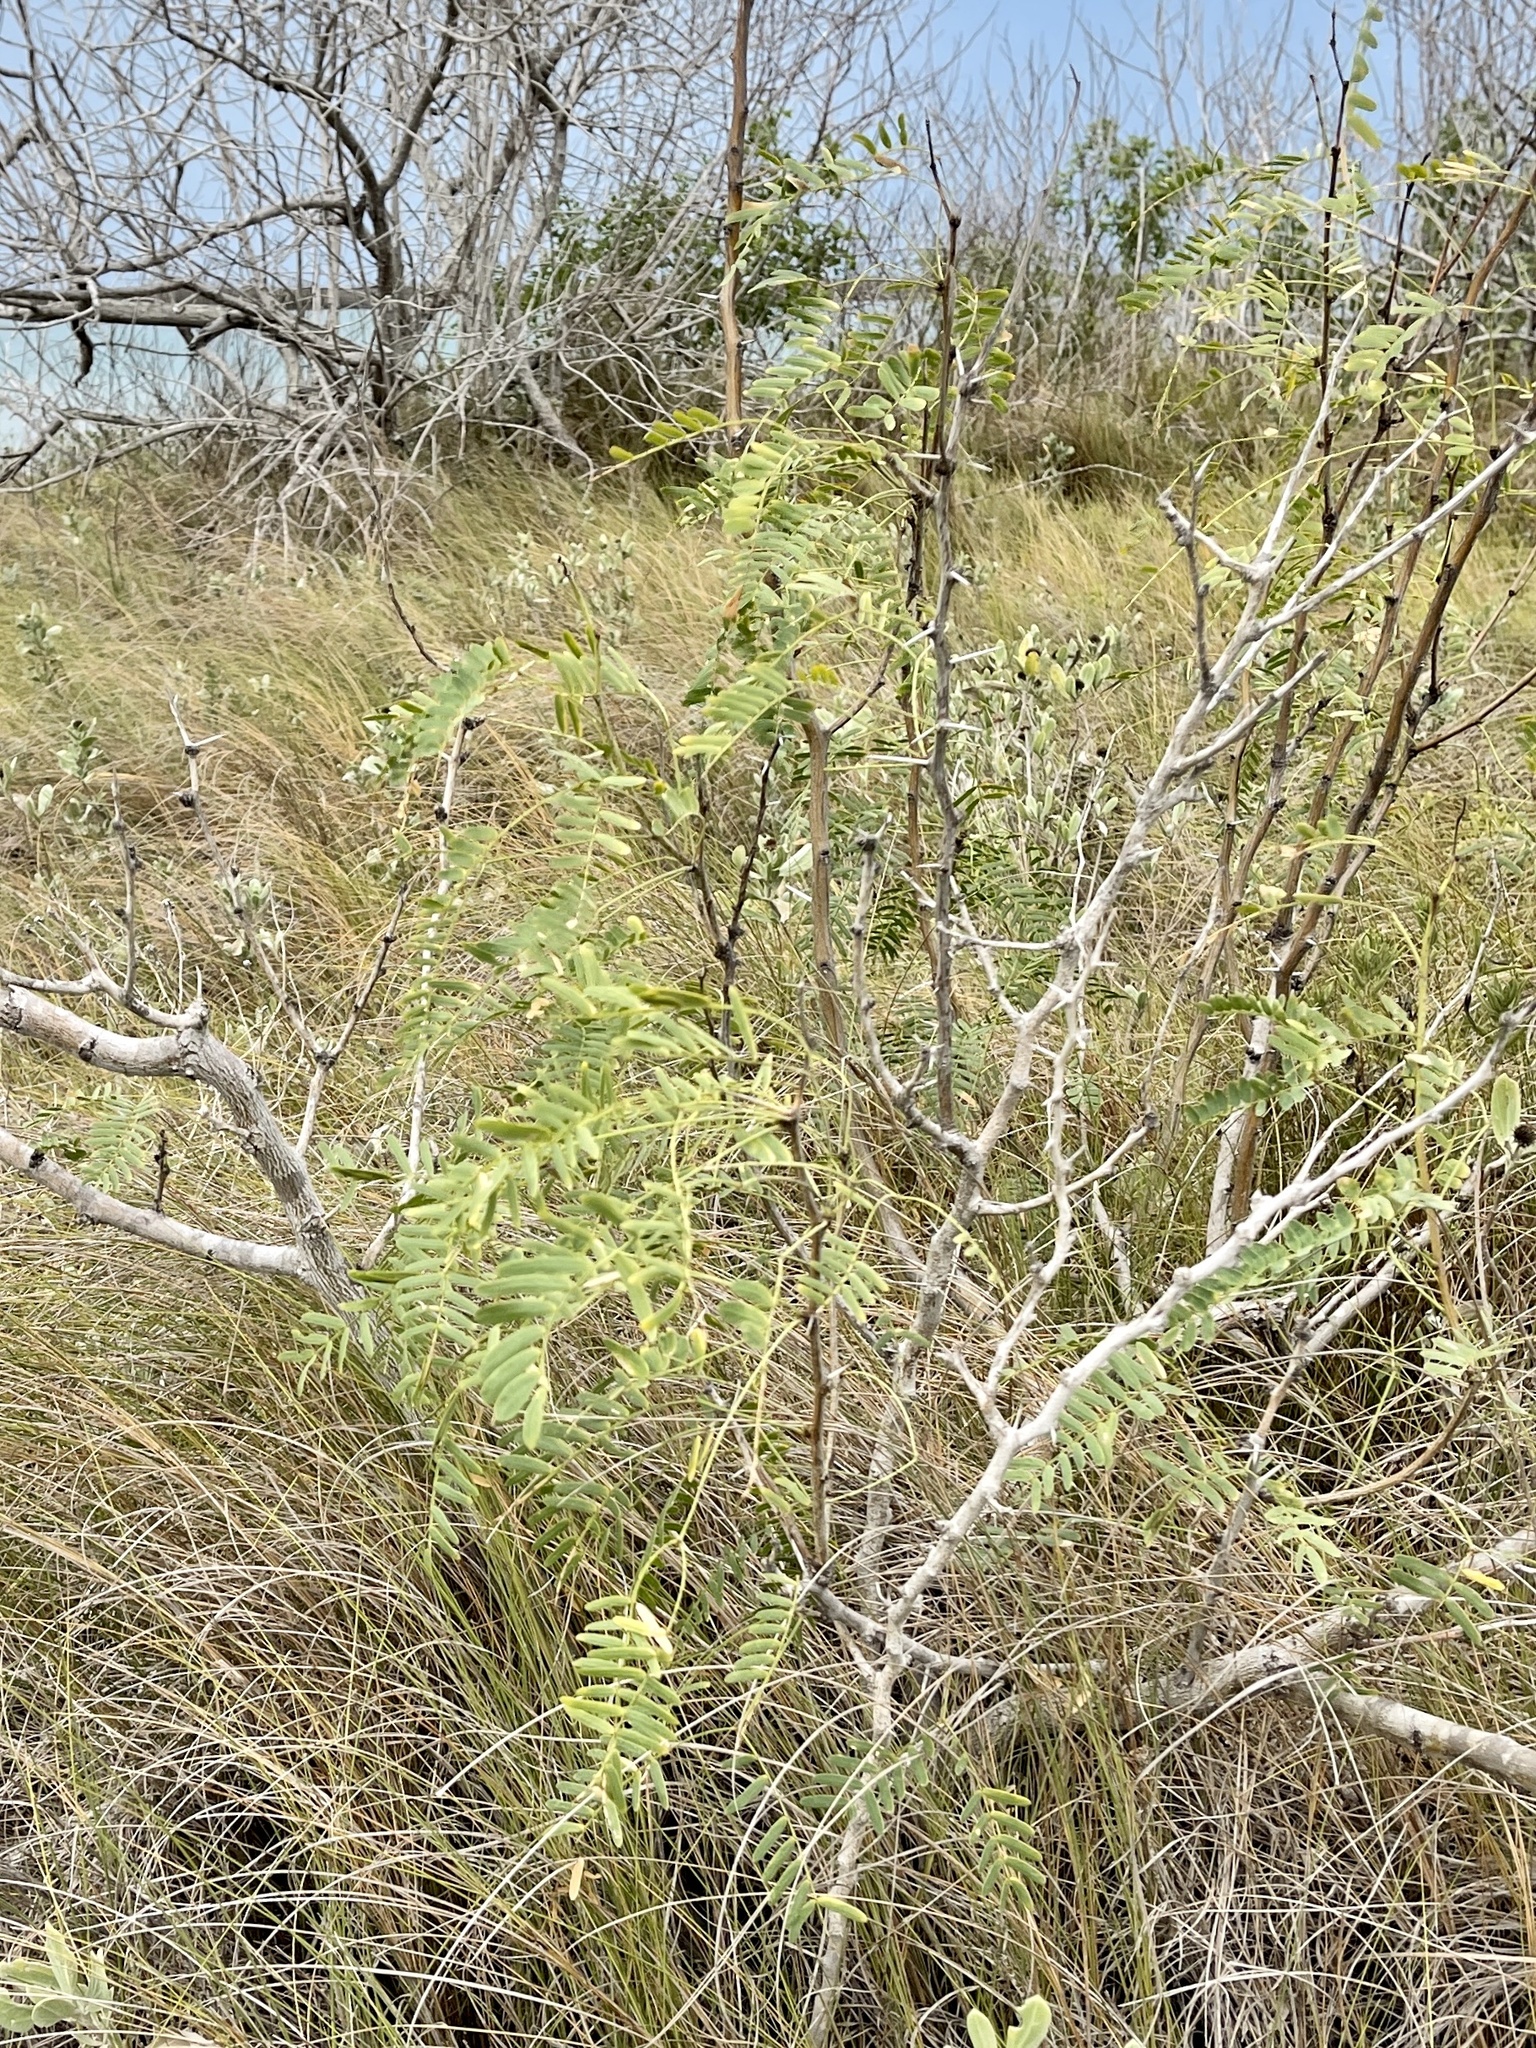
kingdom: Plantae
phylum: Tracheophyta
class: Magnoliopsida
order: Fabales
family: Fabaceae
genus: Prosopis
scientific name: Prosopis glandulosa
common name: Honey mesquite
